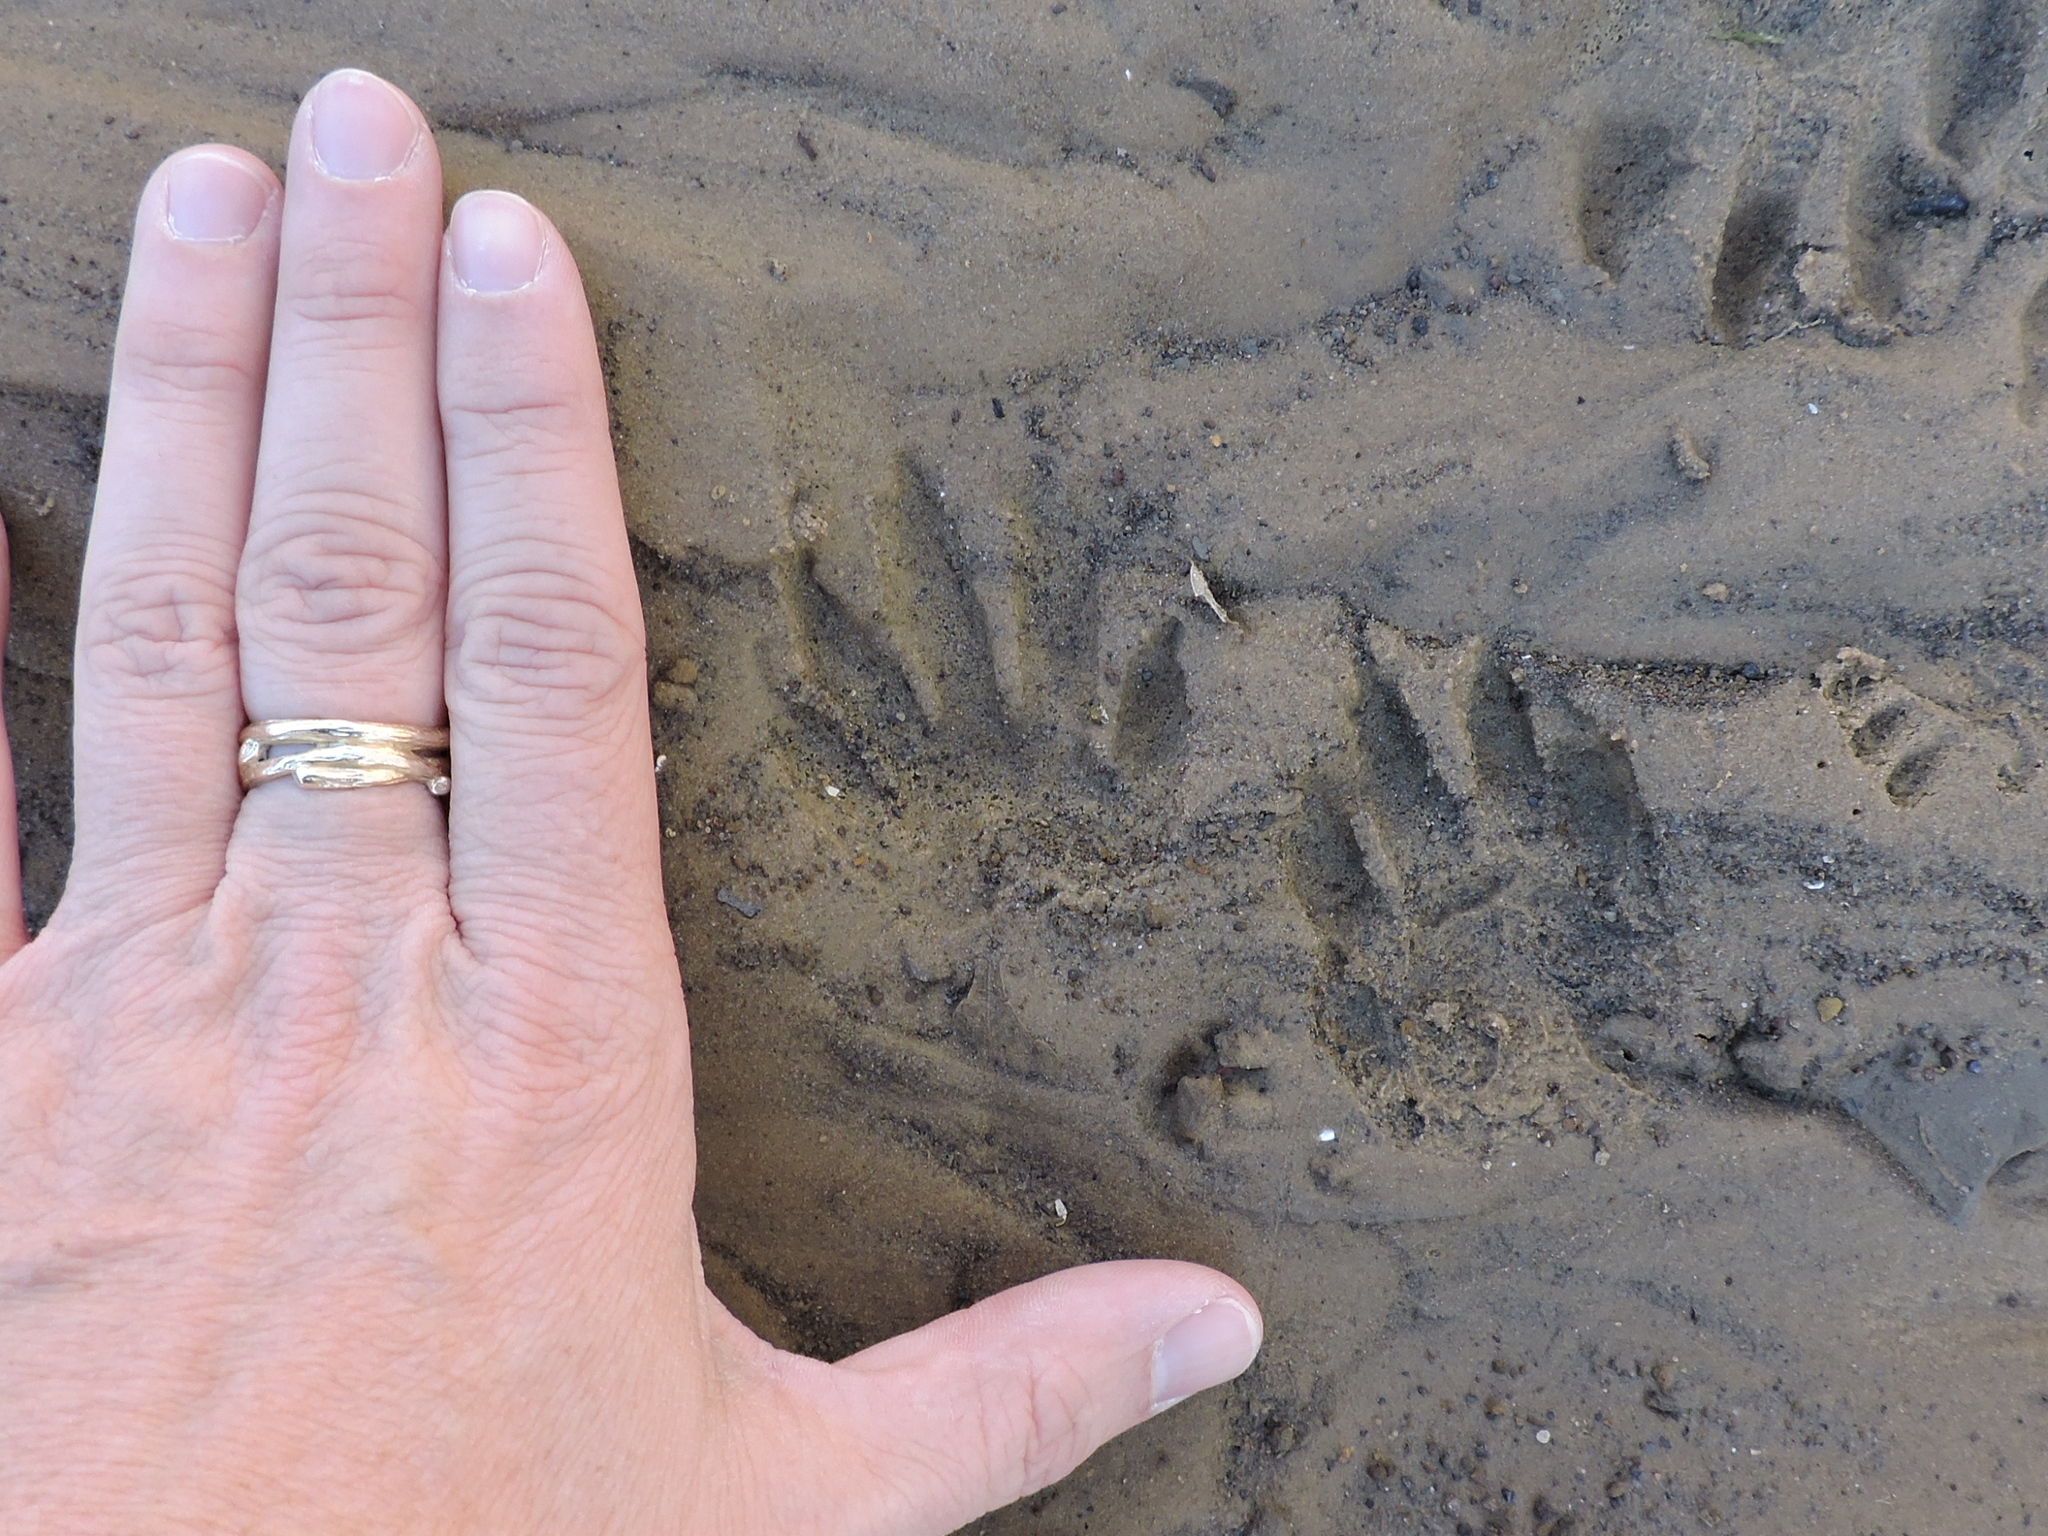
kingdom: Animalia
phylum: Chordata
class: Mammalia
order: Carnivora
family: Procyonidae
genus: Procyon
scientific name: Procyon lotor
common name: Raccoon
